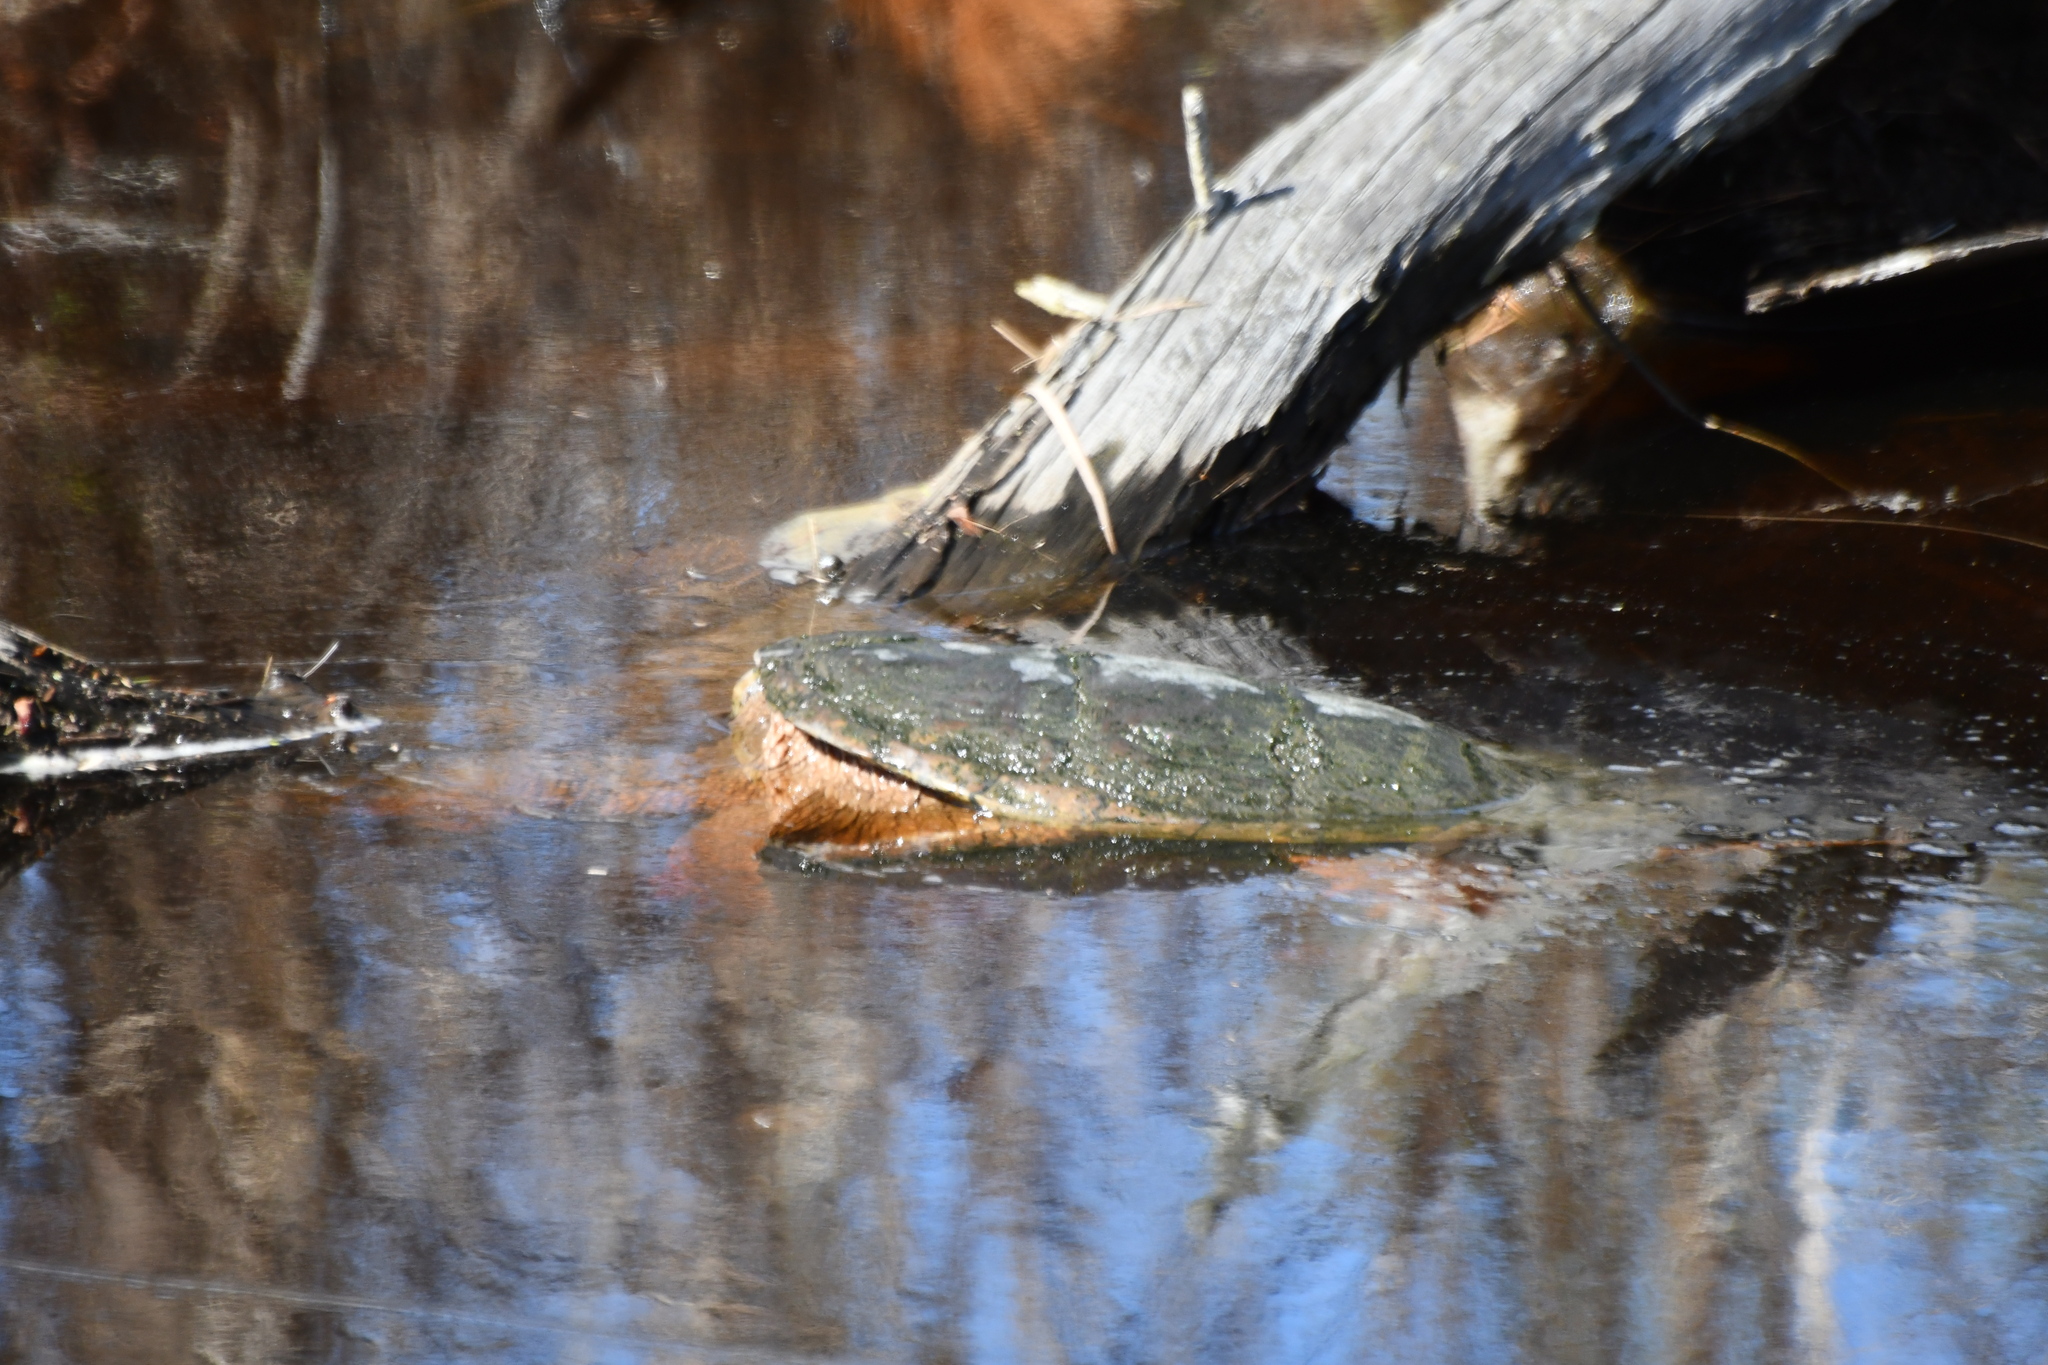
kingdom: Animalia
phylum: Chordata
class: Testudines
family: Chelydridae
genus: Chelydra
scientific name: Chelydra serpentina
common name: Common snapping turtle
